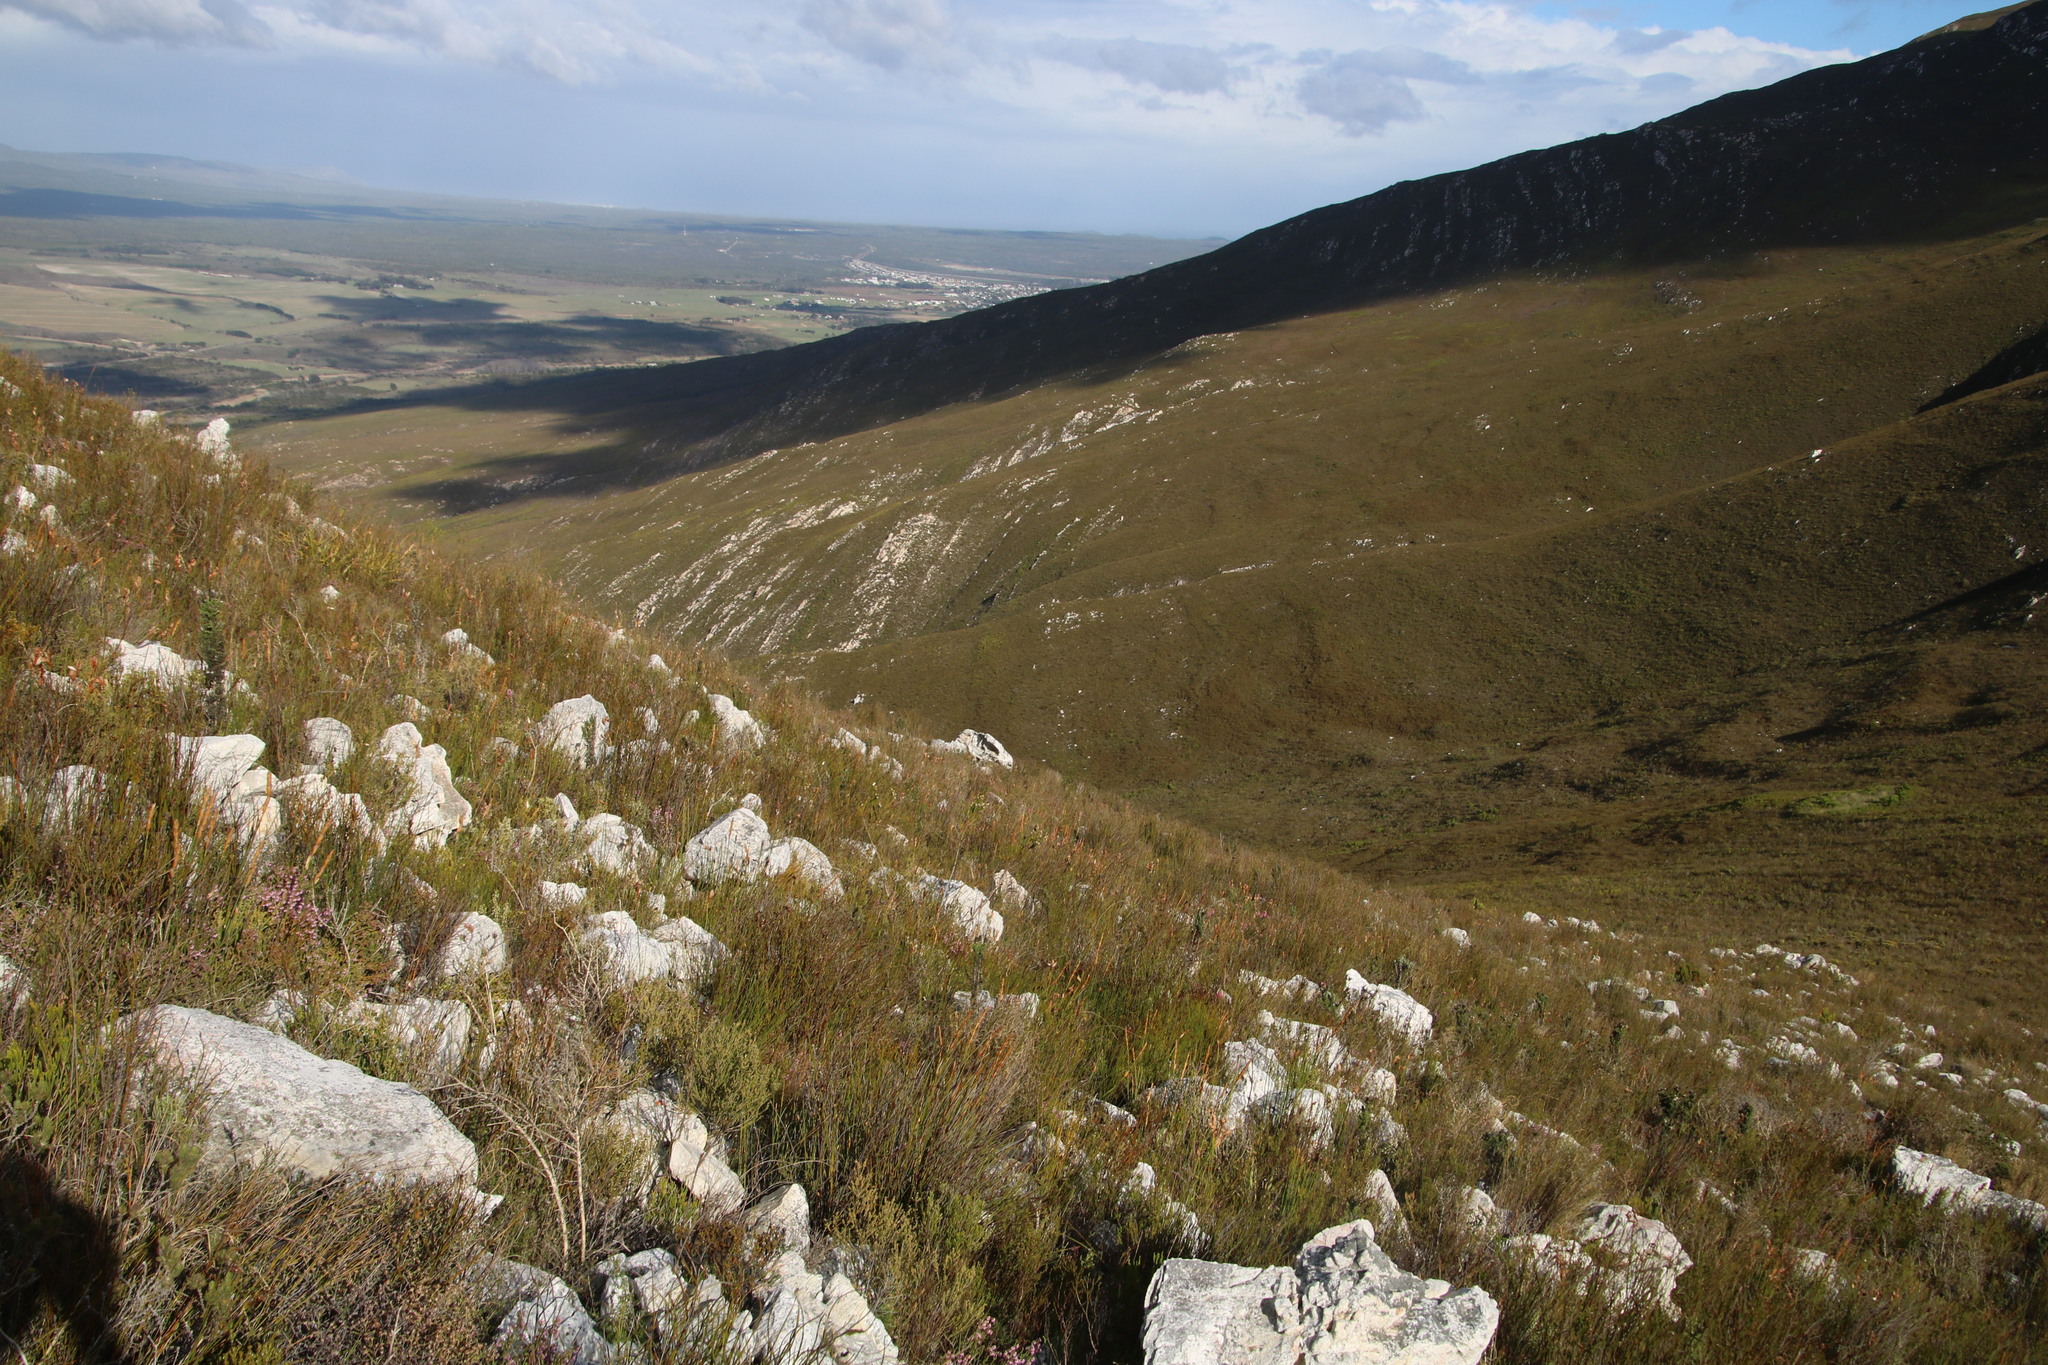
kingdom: Plantae
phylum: Tracheophyta
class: Magnoliopsida
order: Bruniales
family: Bruniaceae
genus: Berzelia
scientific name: Berzelia rubra
